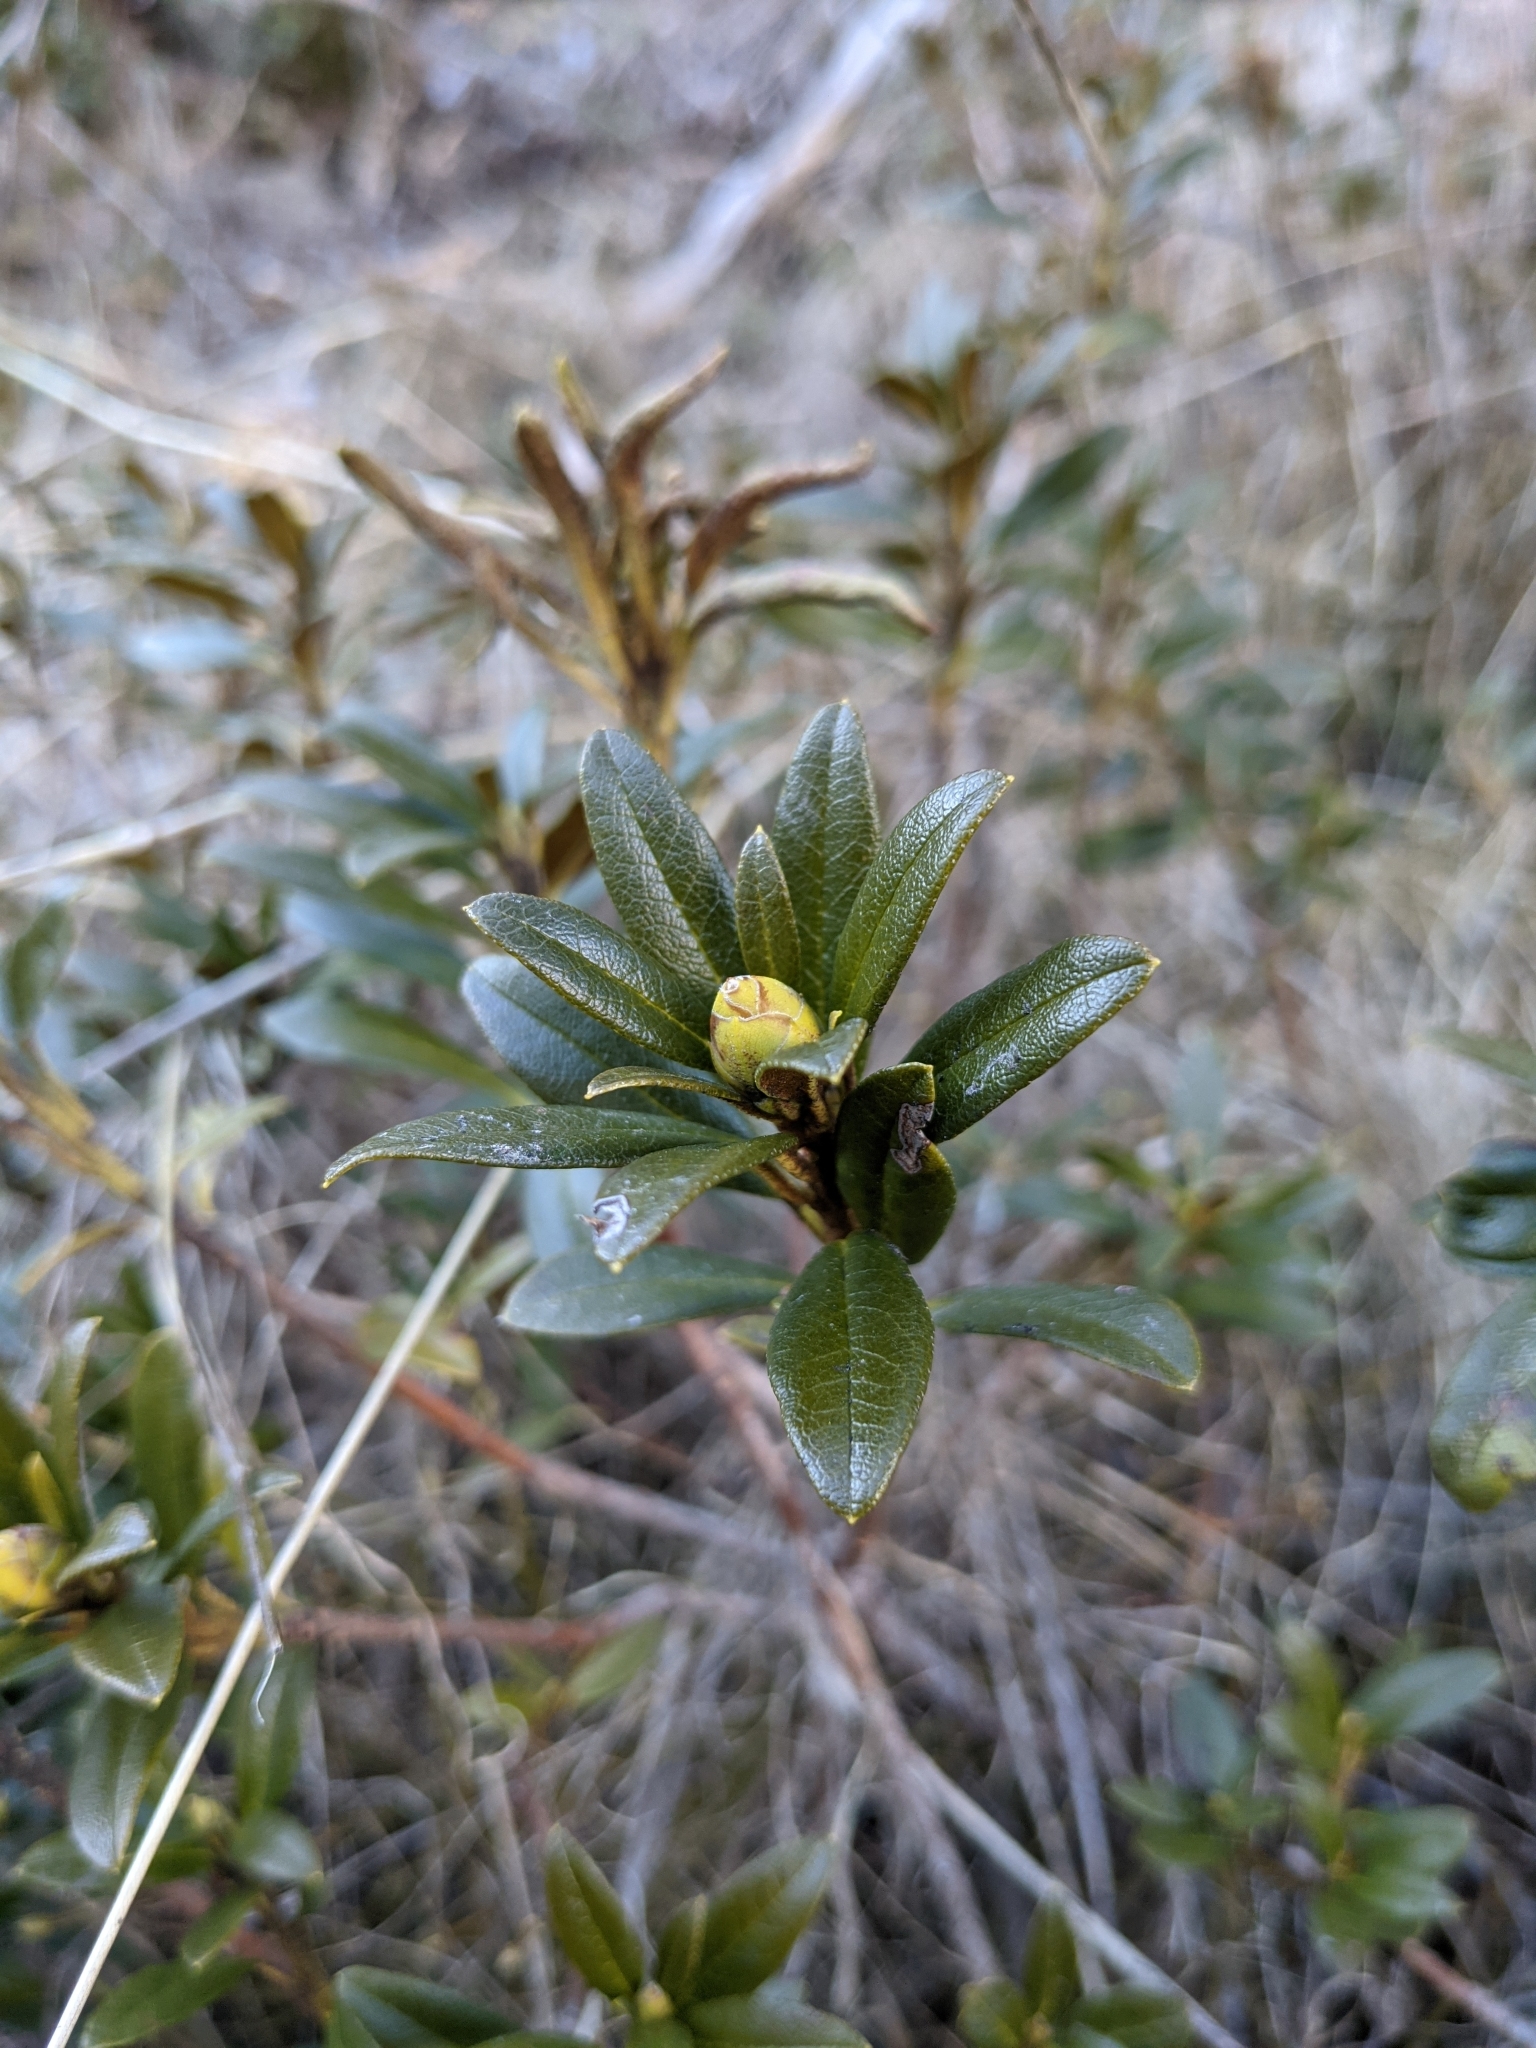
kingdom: Plantae
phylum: Tracheophyta
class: Magnoliopsida
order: Ericales
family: Ericaceae
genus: Rhododendron
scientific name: Rhododendron ferrugineum
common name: Alpenrose
